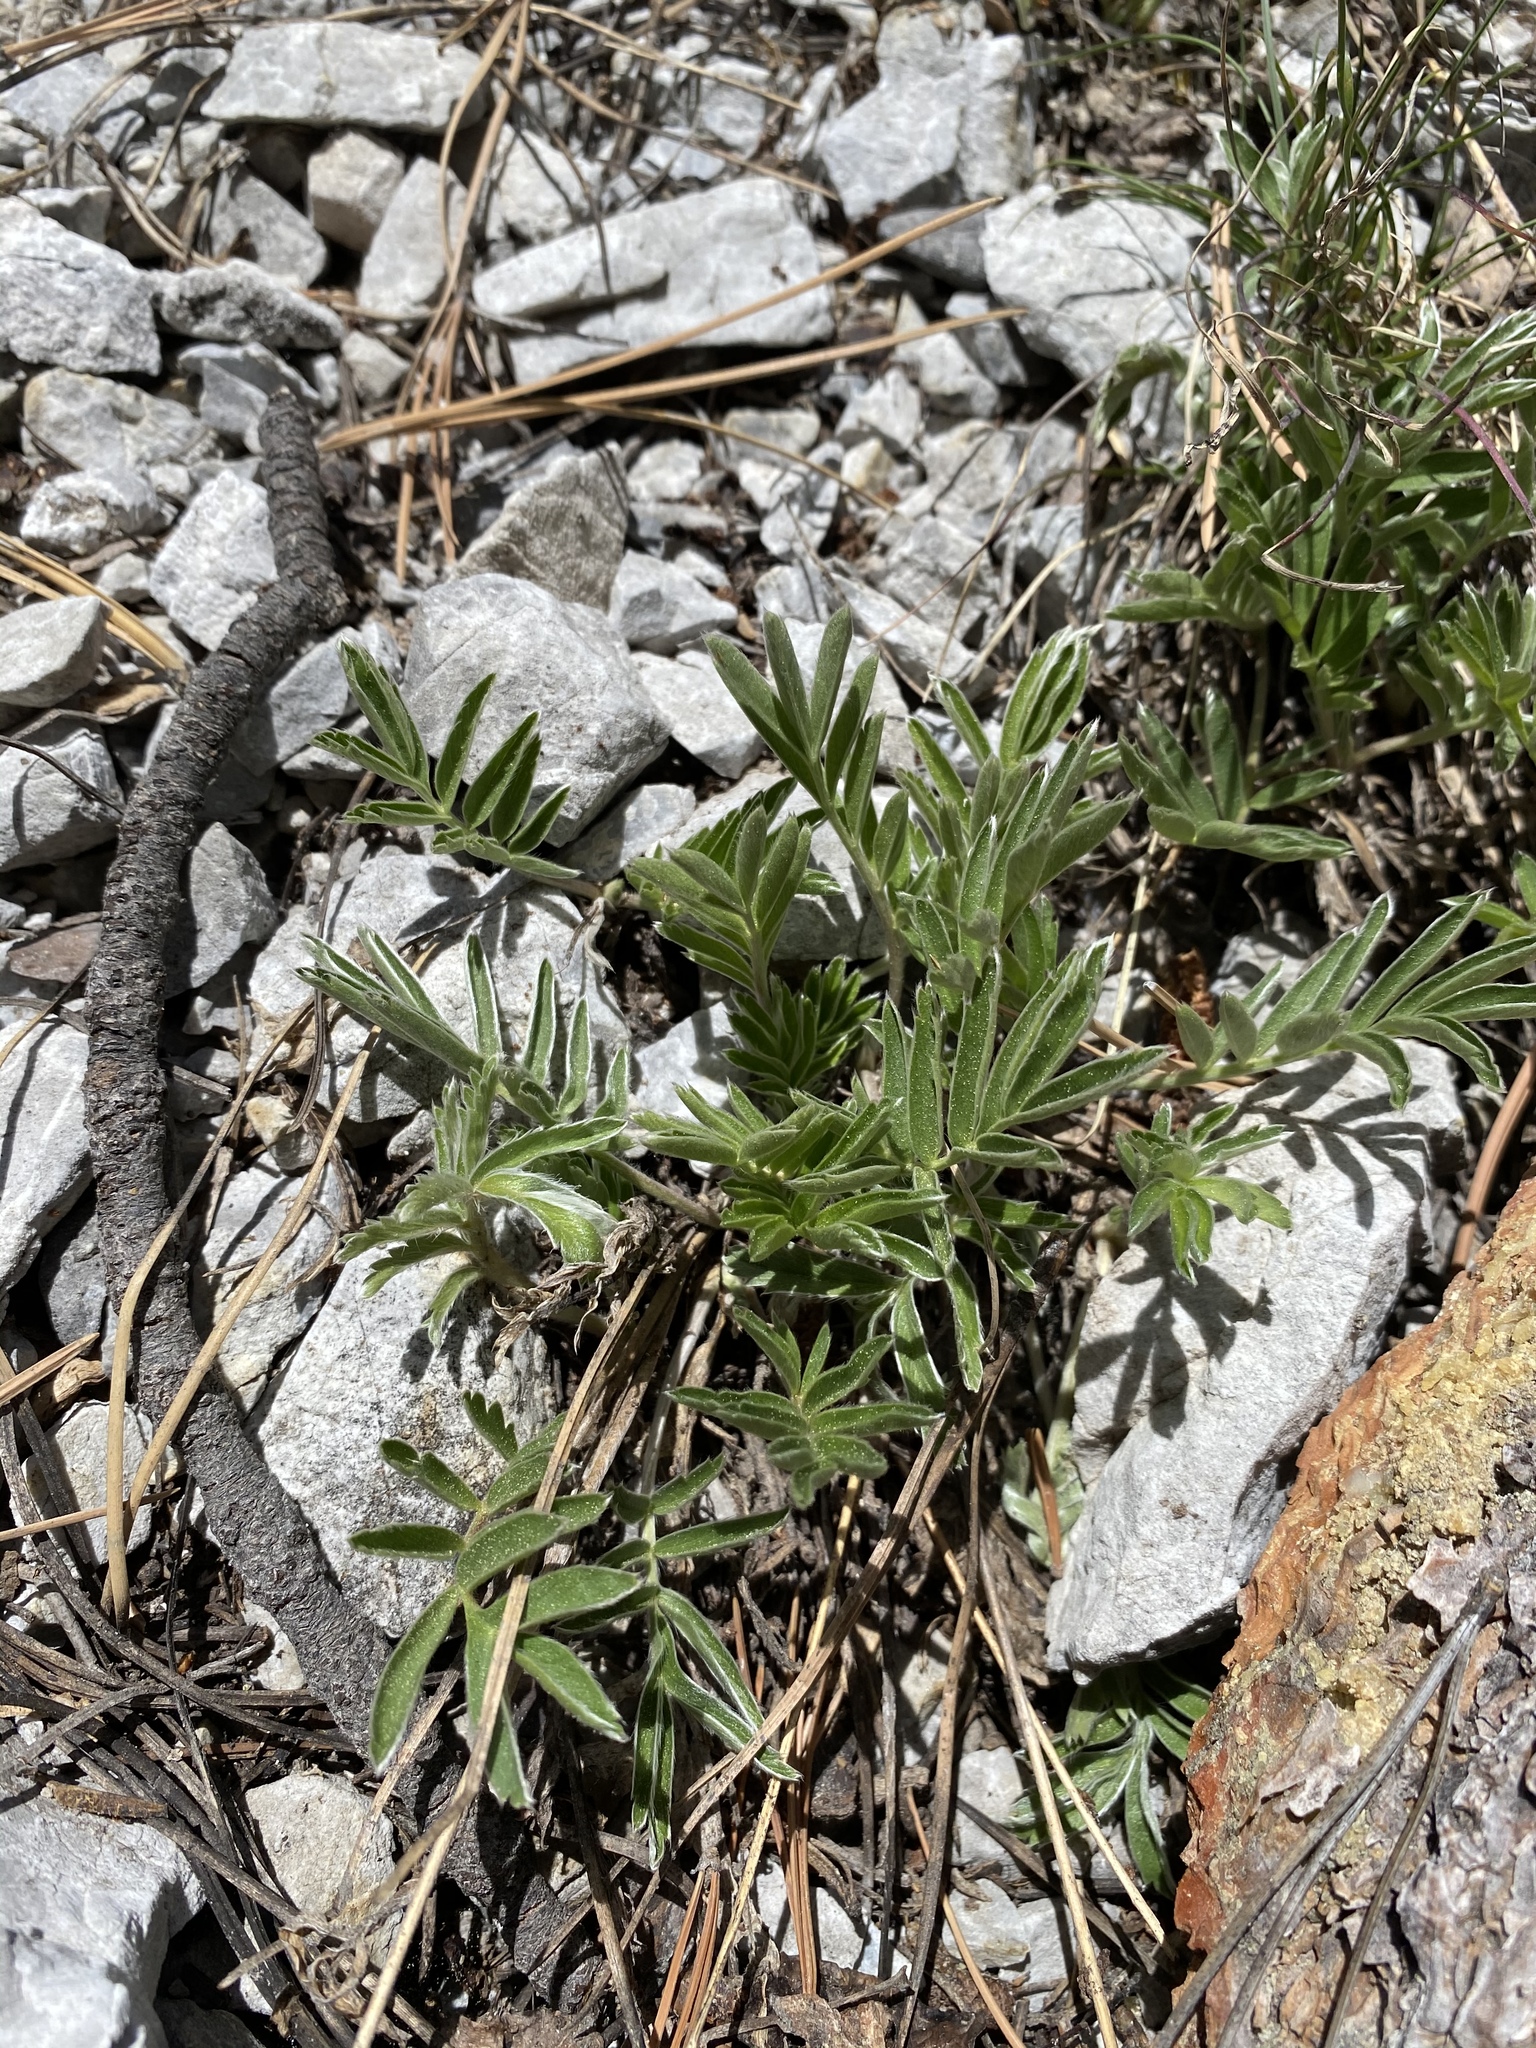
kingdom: Plantae
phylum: Tracheophyta
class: Magnoliopsida
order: Rosales
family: Rosaceae
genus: Potentilla
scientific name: Potentilla hippiana
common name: Woolly cinquefoil
